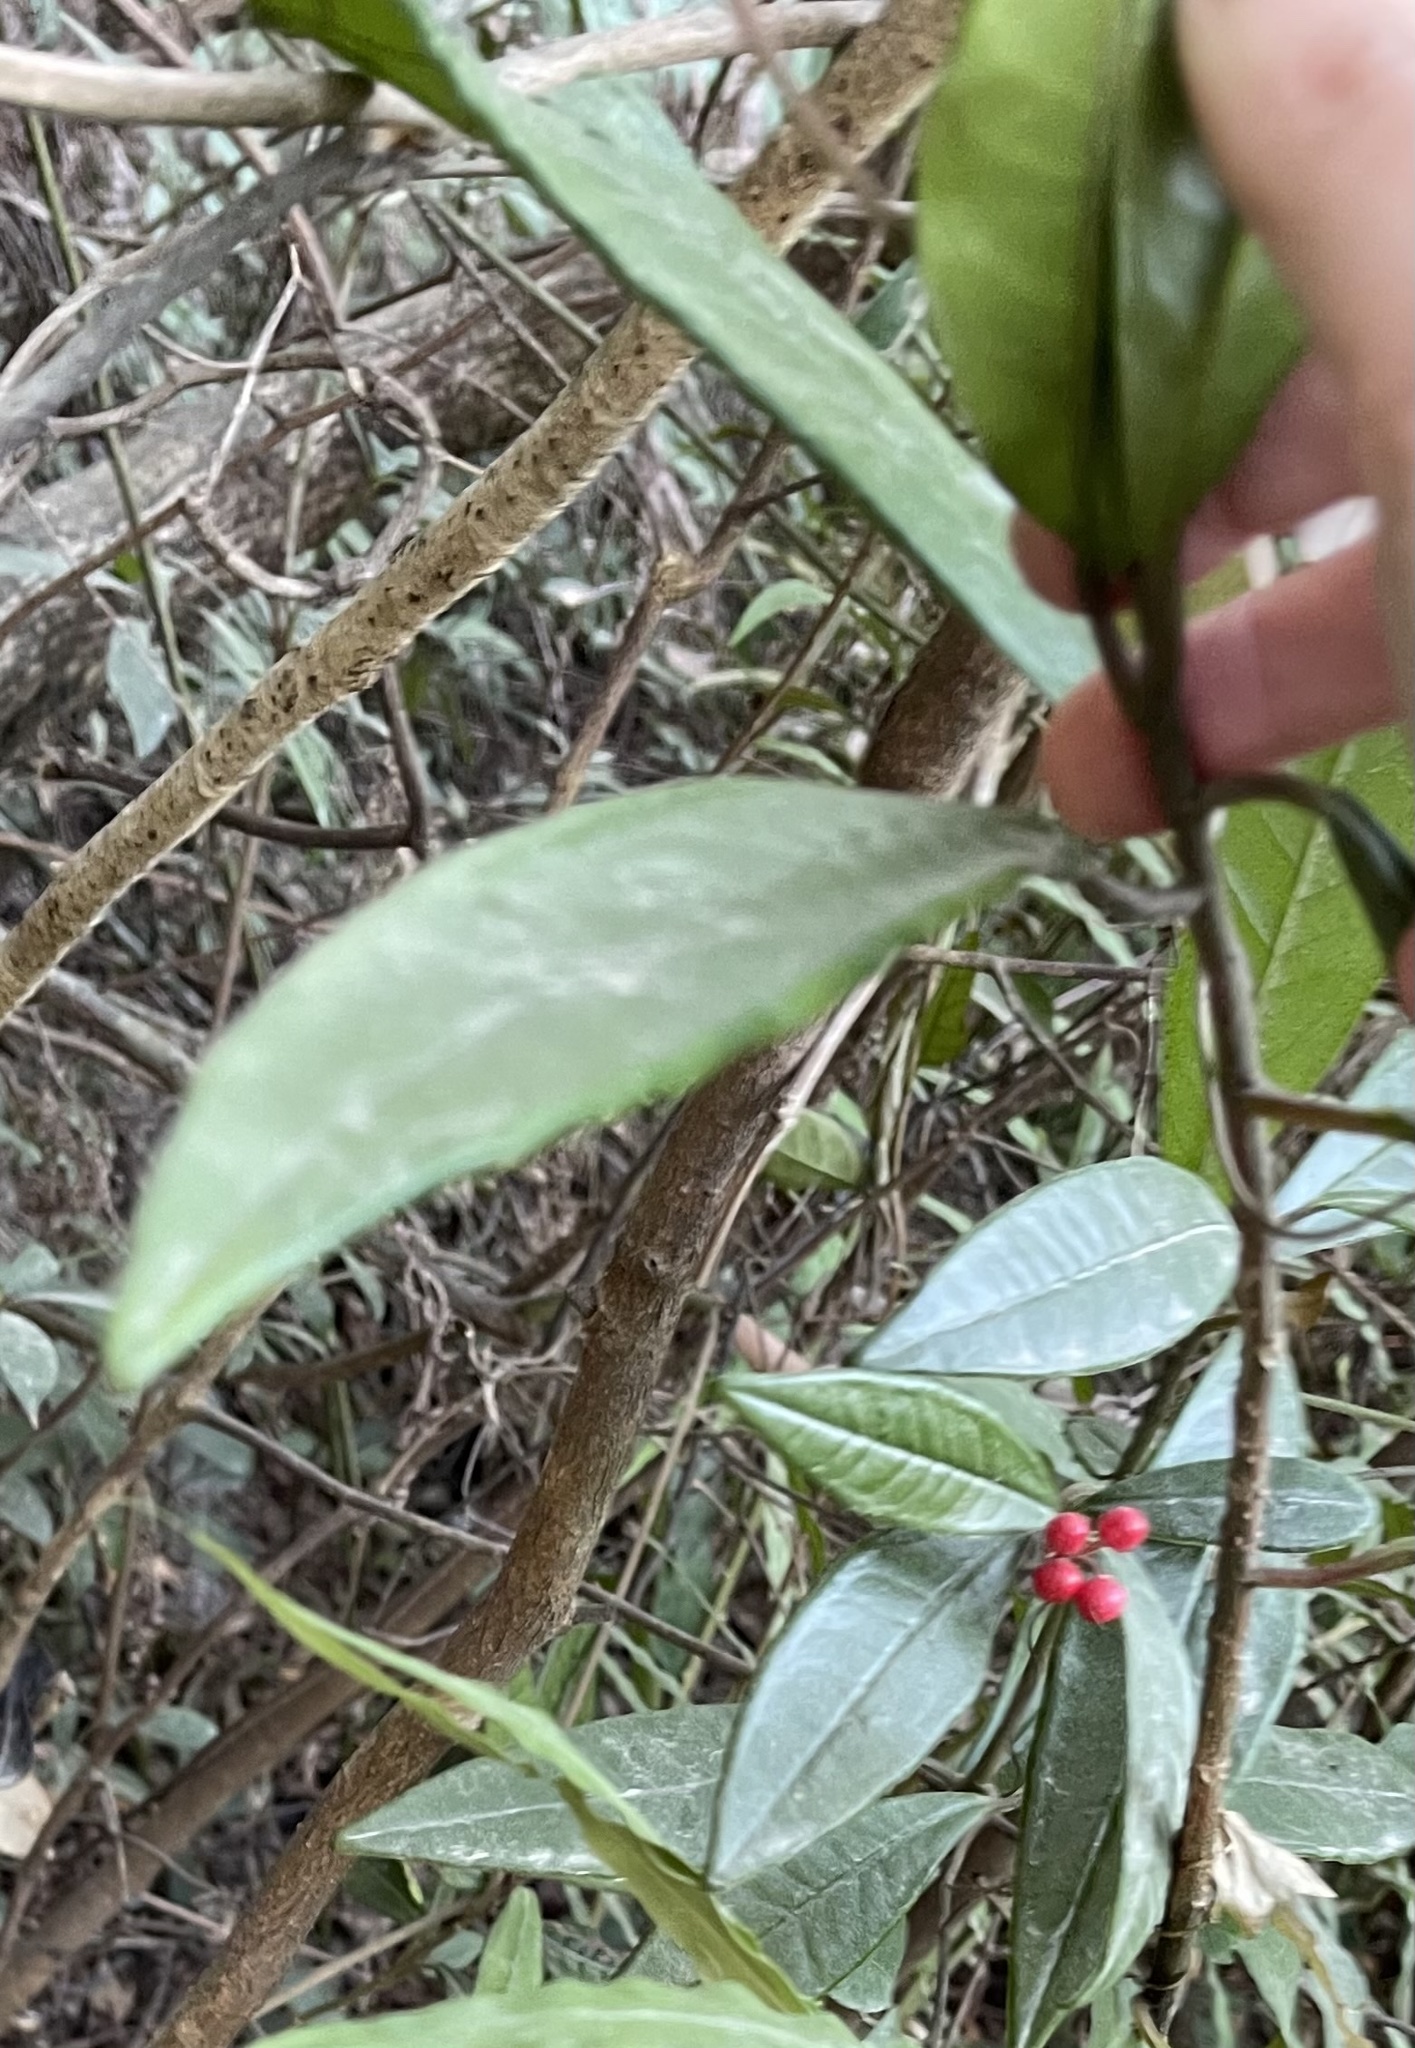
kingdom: Plantae
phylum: Tracheophyta
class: Magnoliopsida
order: Ericales
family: Primulaceae
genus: Ardisia
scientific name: Ardisia lindleyana
